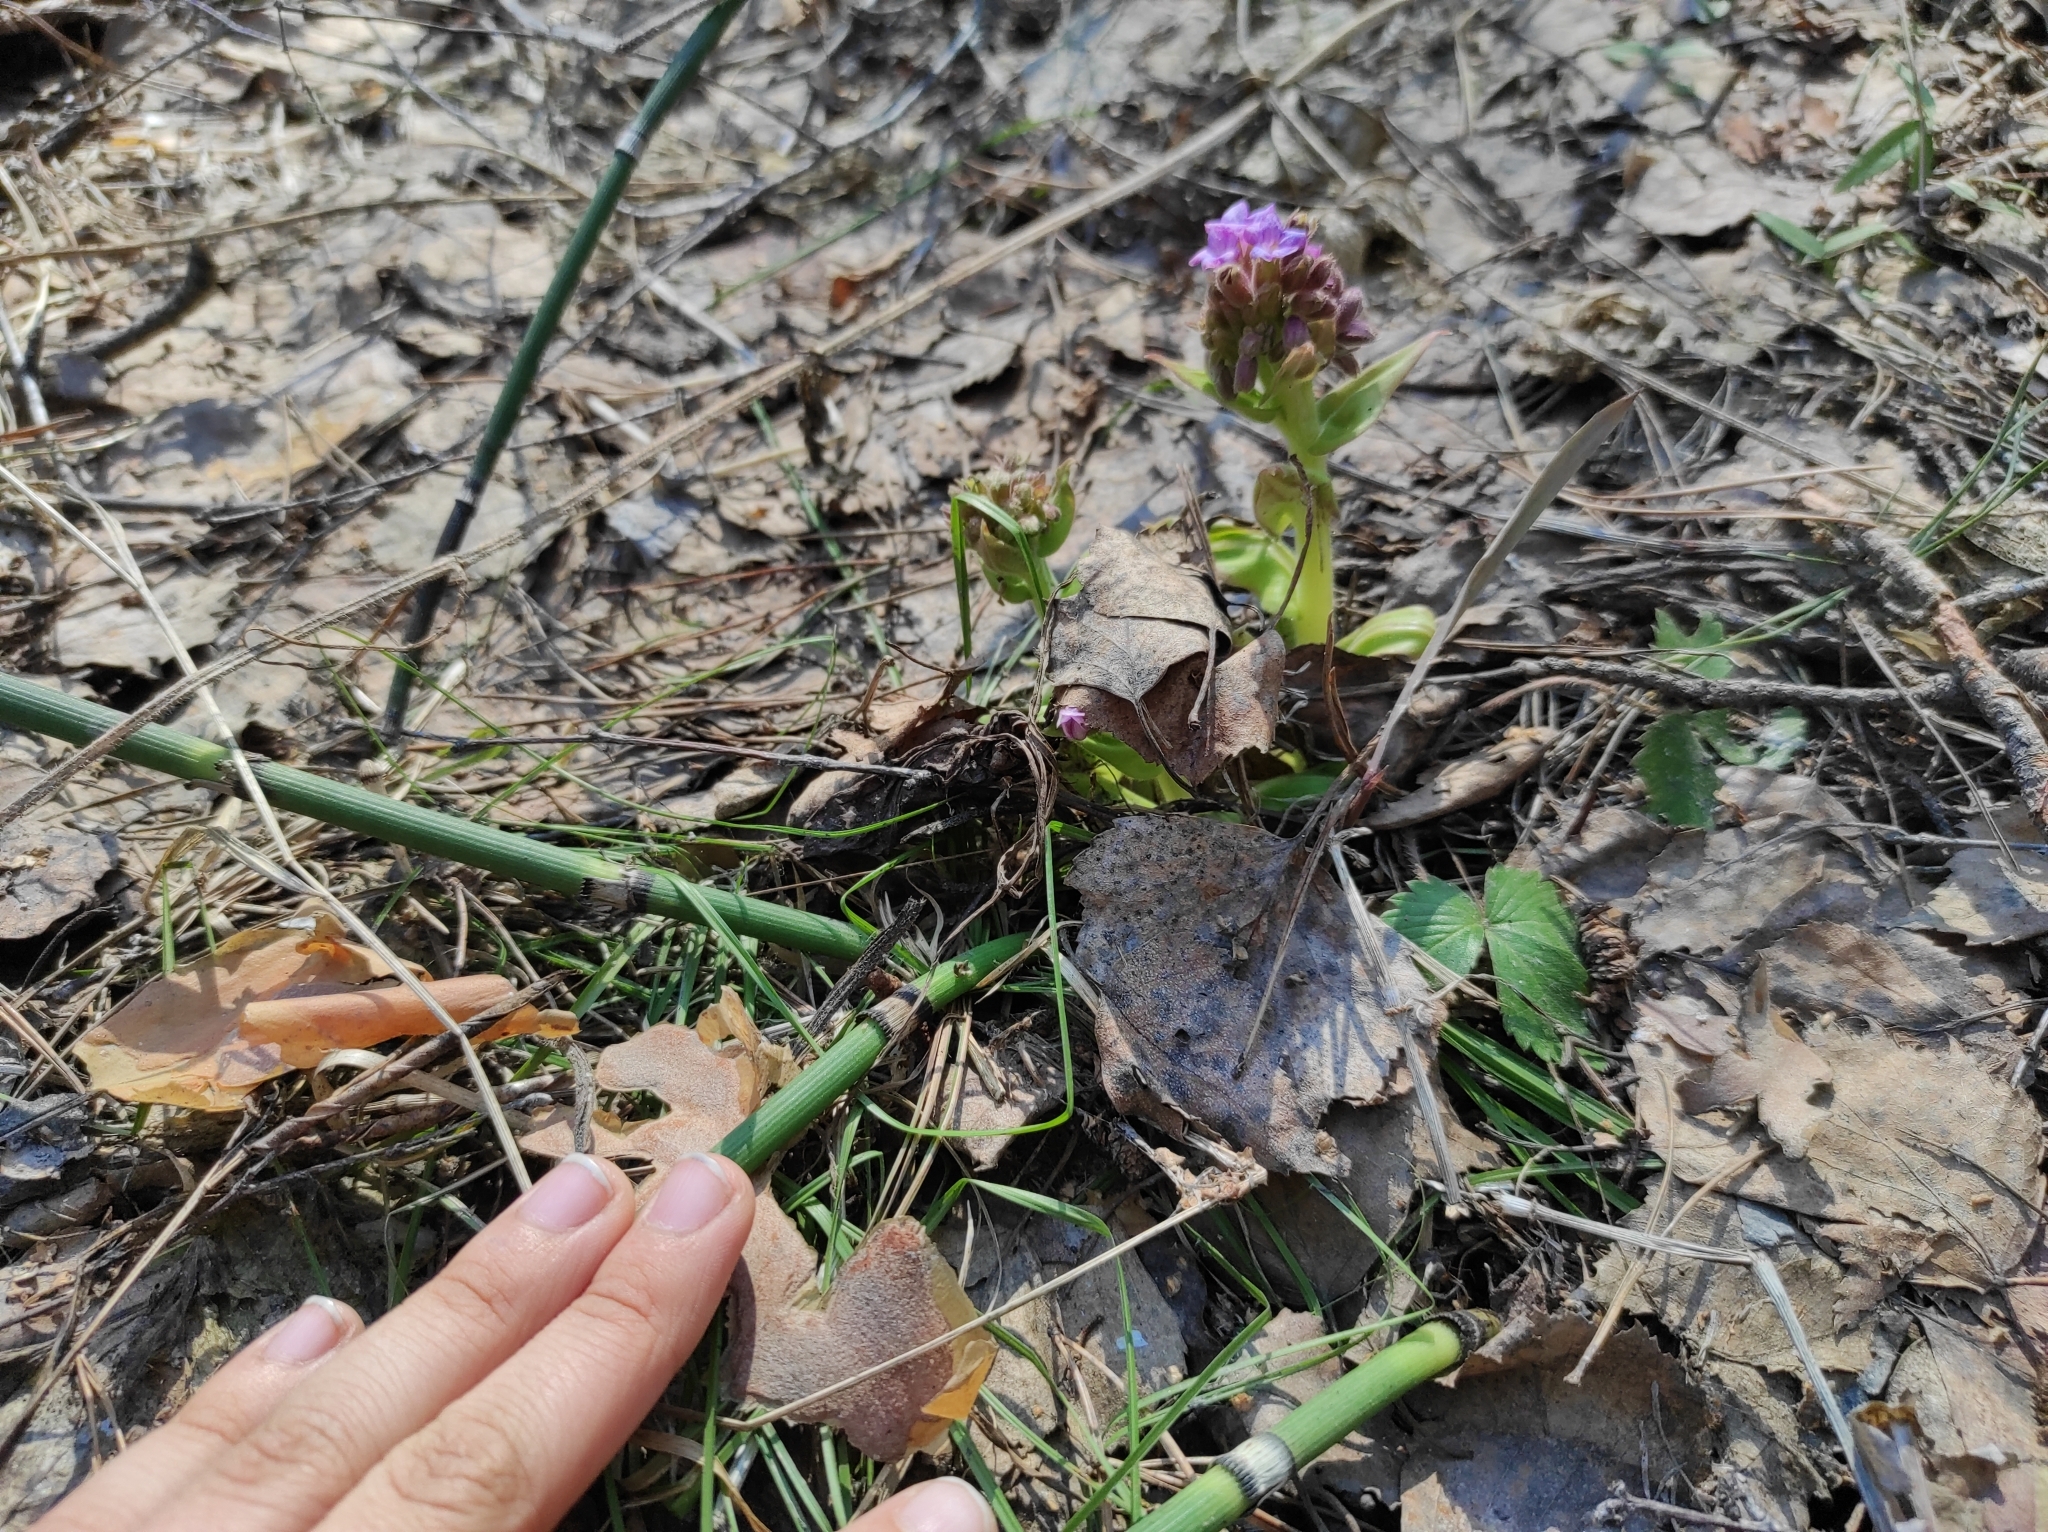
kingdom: Plantae
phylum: Tracheophyta
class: Magnoliopsida
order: Boraginales
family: Boraginaceae
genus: Pulmonaria
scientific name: Pulmonaria mollis
